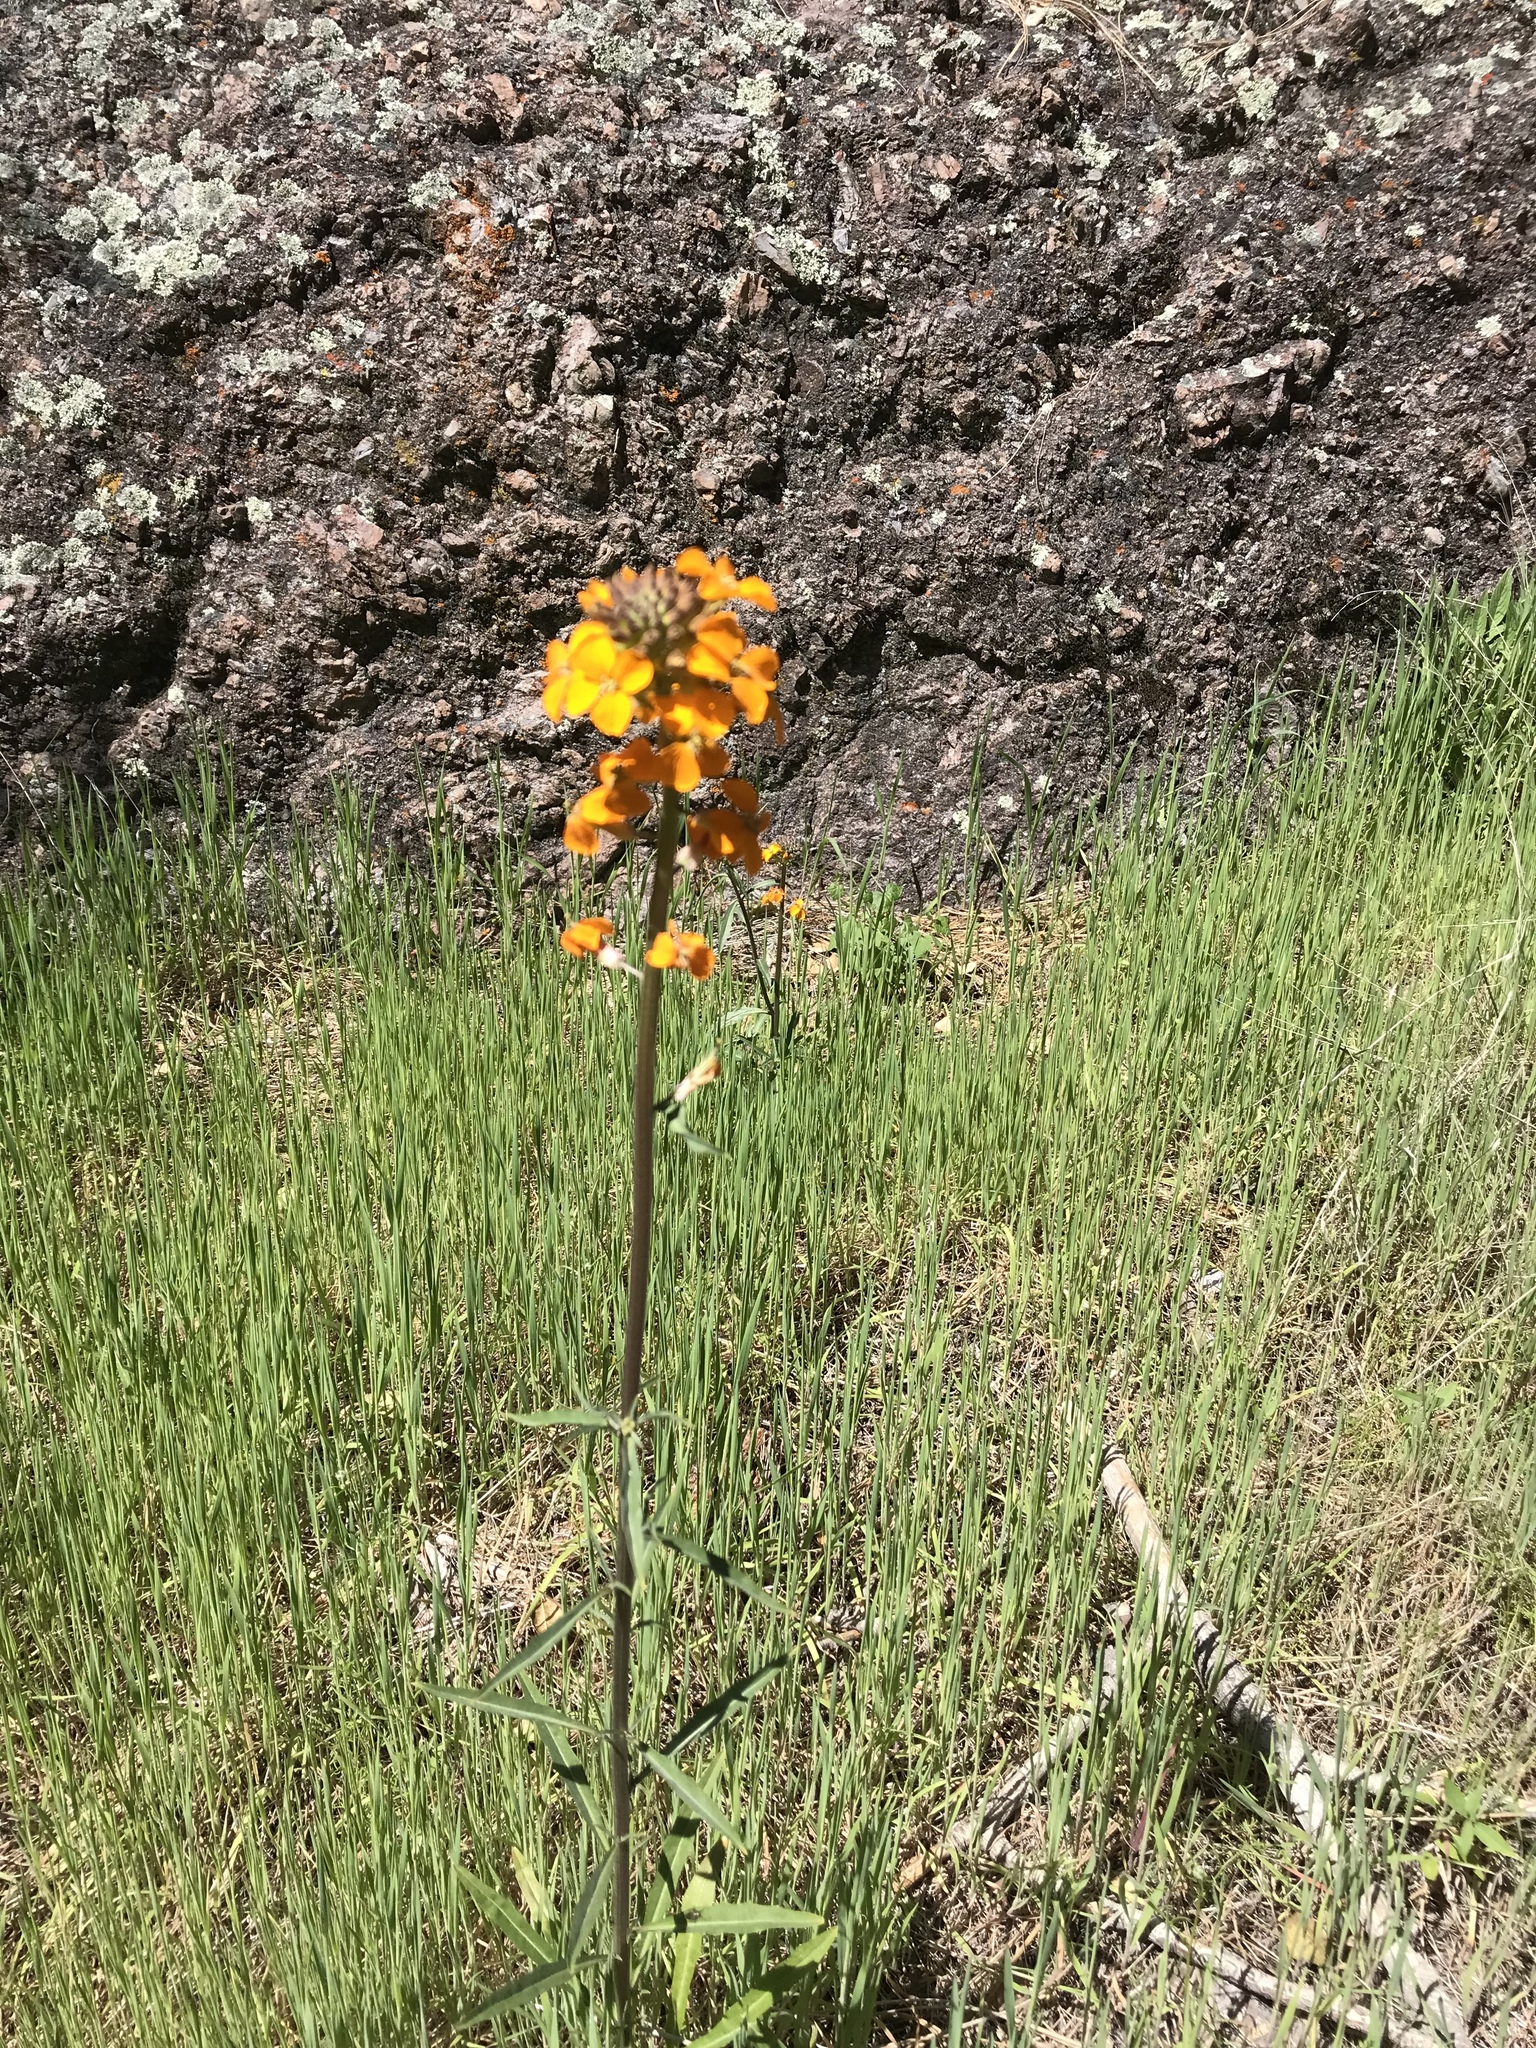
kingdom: Plantae
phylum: Tracheophyta
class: Magnoliopsida
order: Brassicales
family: Brassicaceae
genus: Erysimum
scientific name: Erysimum capitatum
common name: Western wallflower
